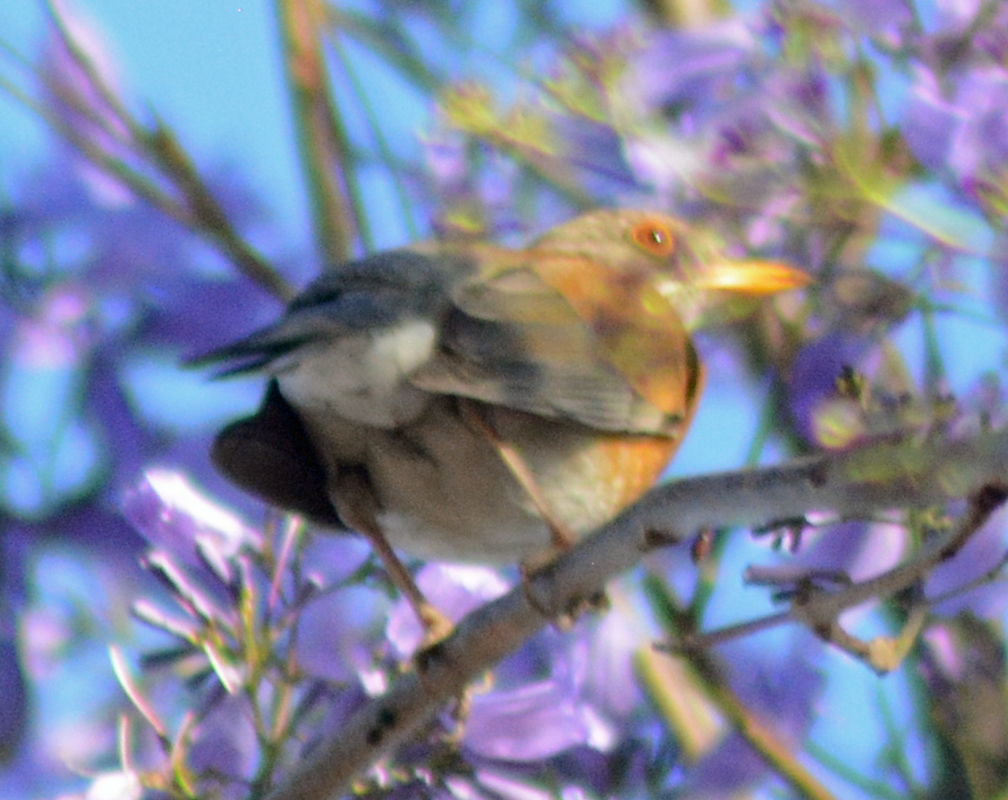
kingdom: Animalia
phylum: Chordata
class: Aves
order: Passeriformes
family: Turdidae
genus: Turdus
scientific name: Turdus rufopalliatus
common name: Rufous-backed robin
